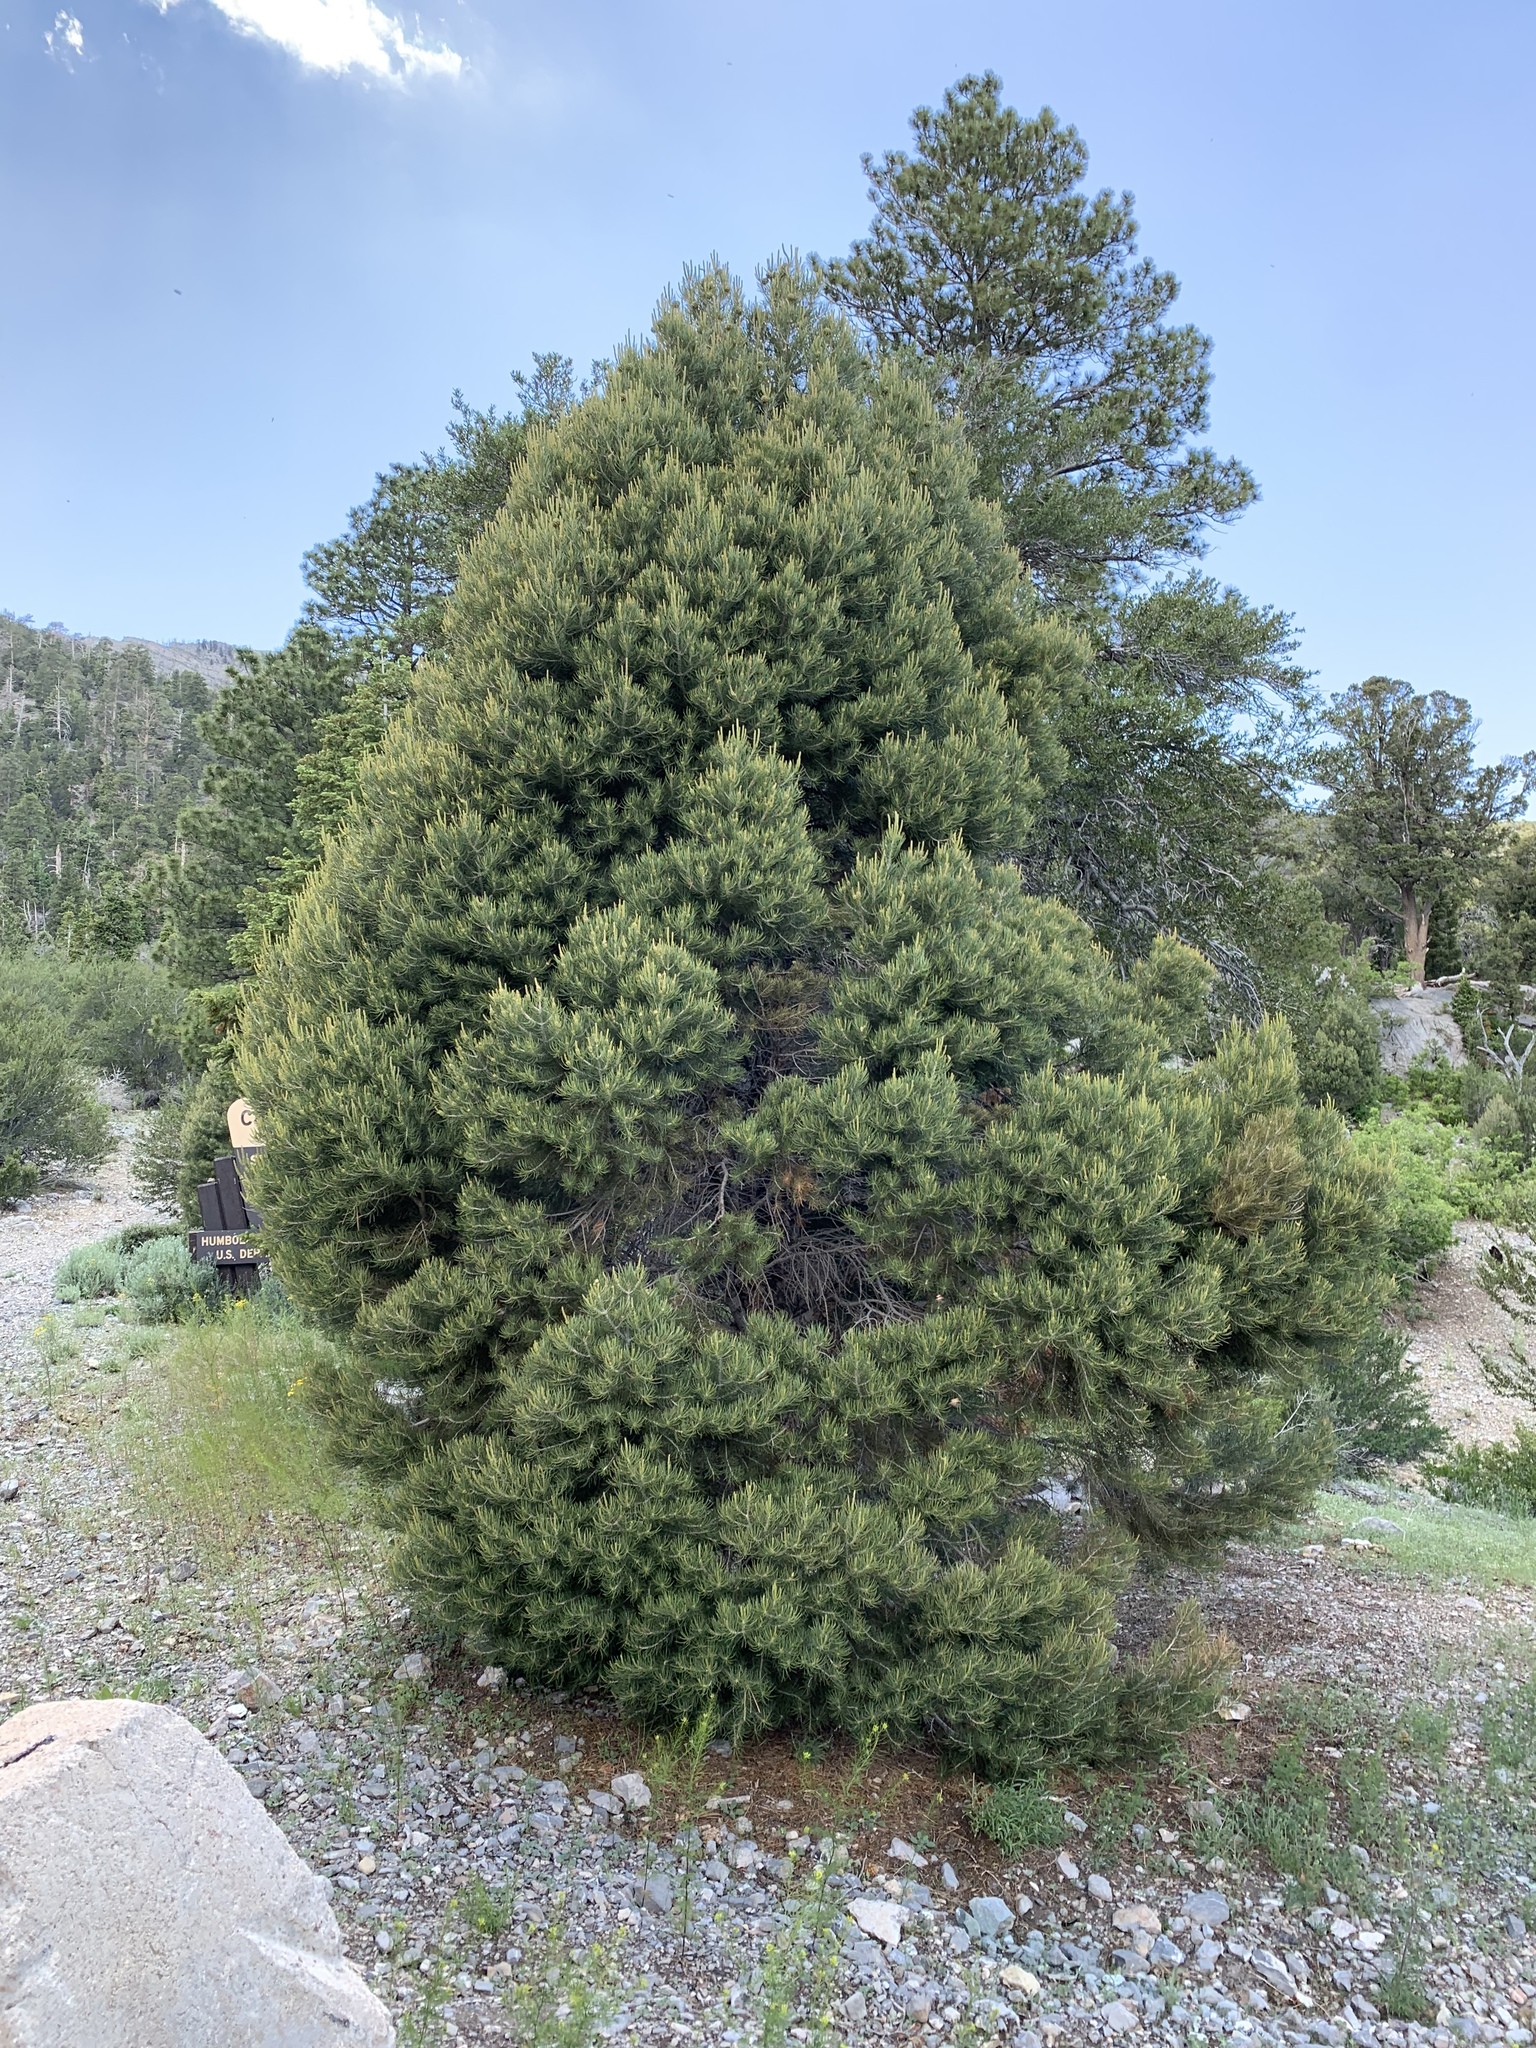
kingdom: Plantae
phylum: Tracheophyta
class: Pinopsida
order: Pinales
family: Pinaceae
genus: Pinus
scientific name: Pinus monophylla
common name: One-leaved nut pine
